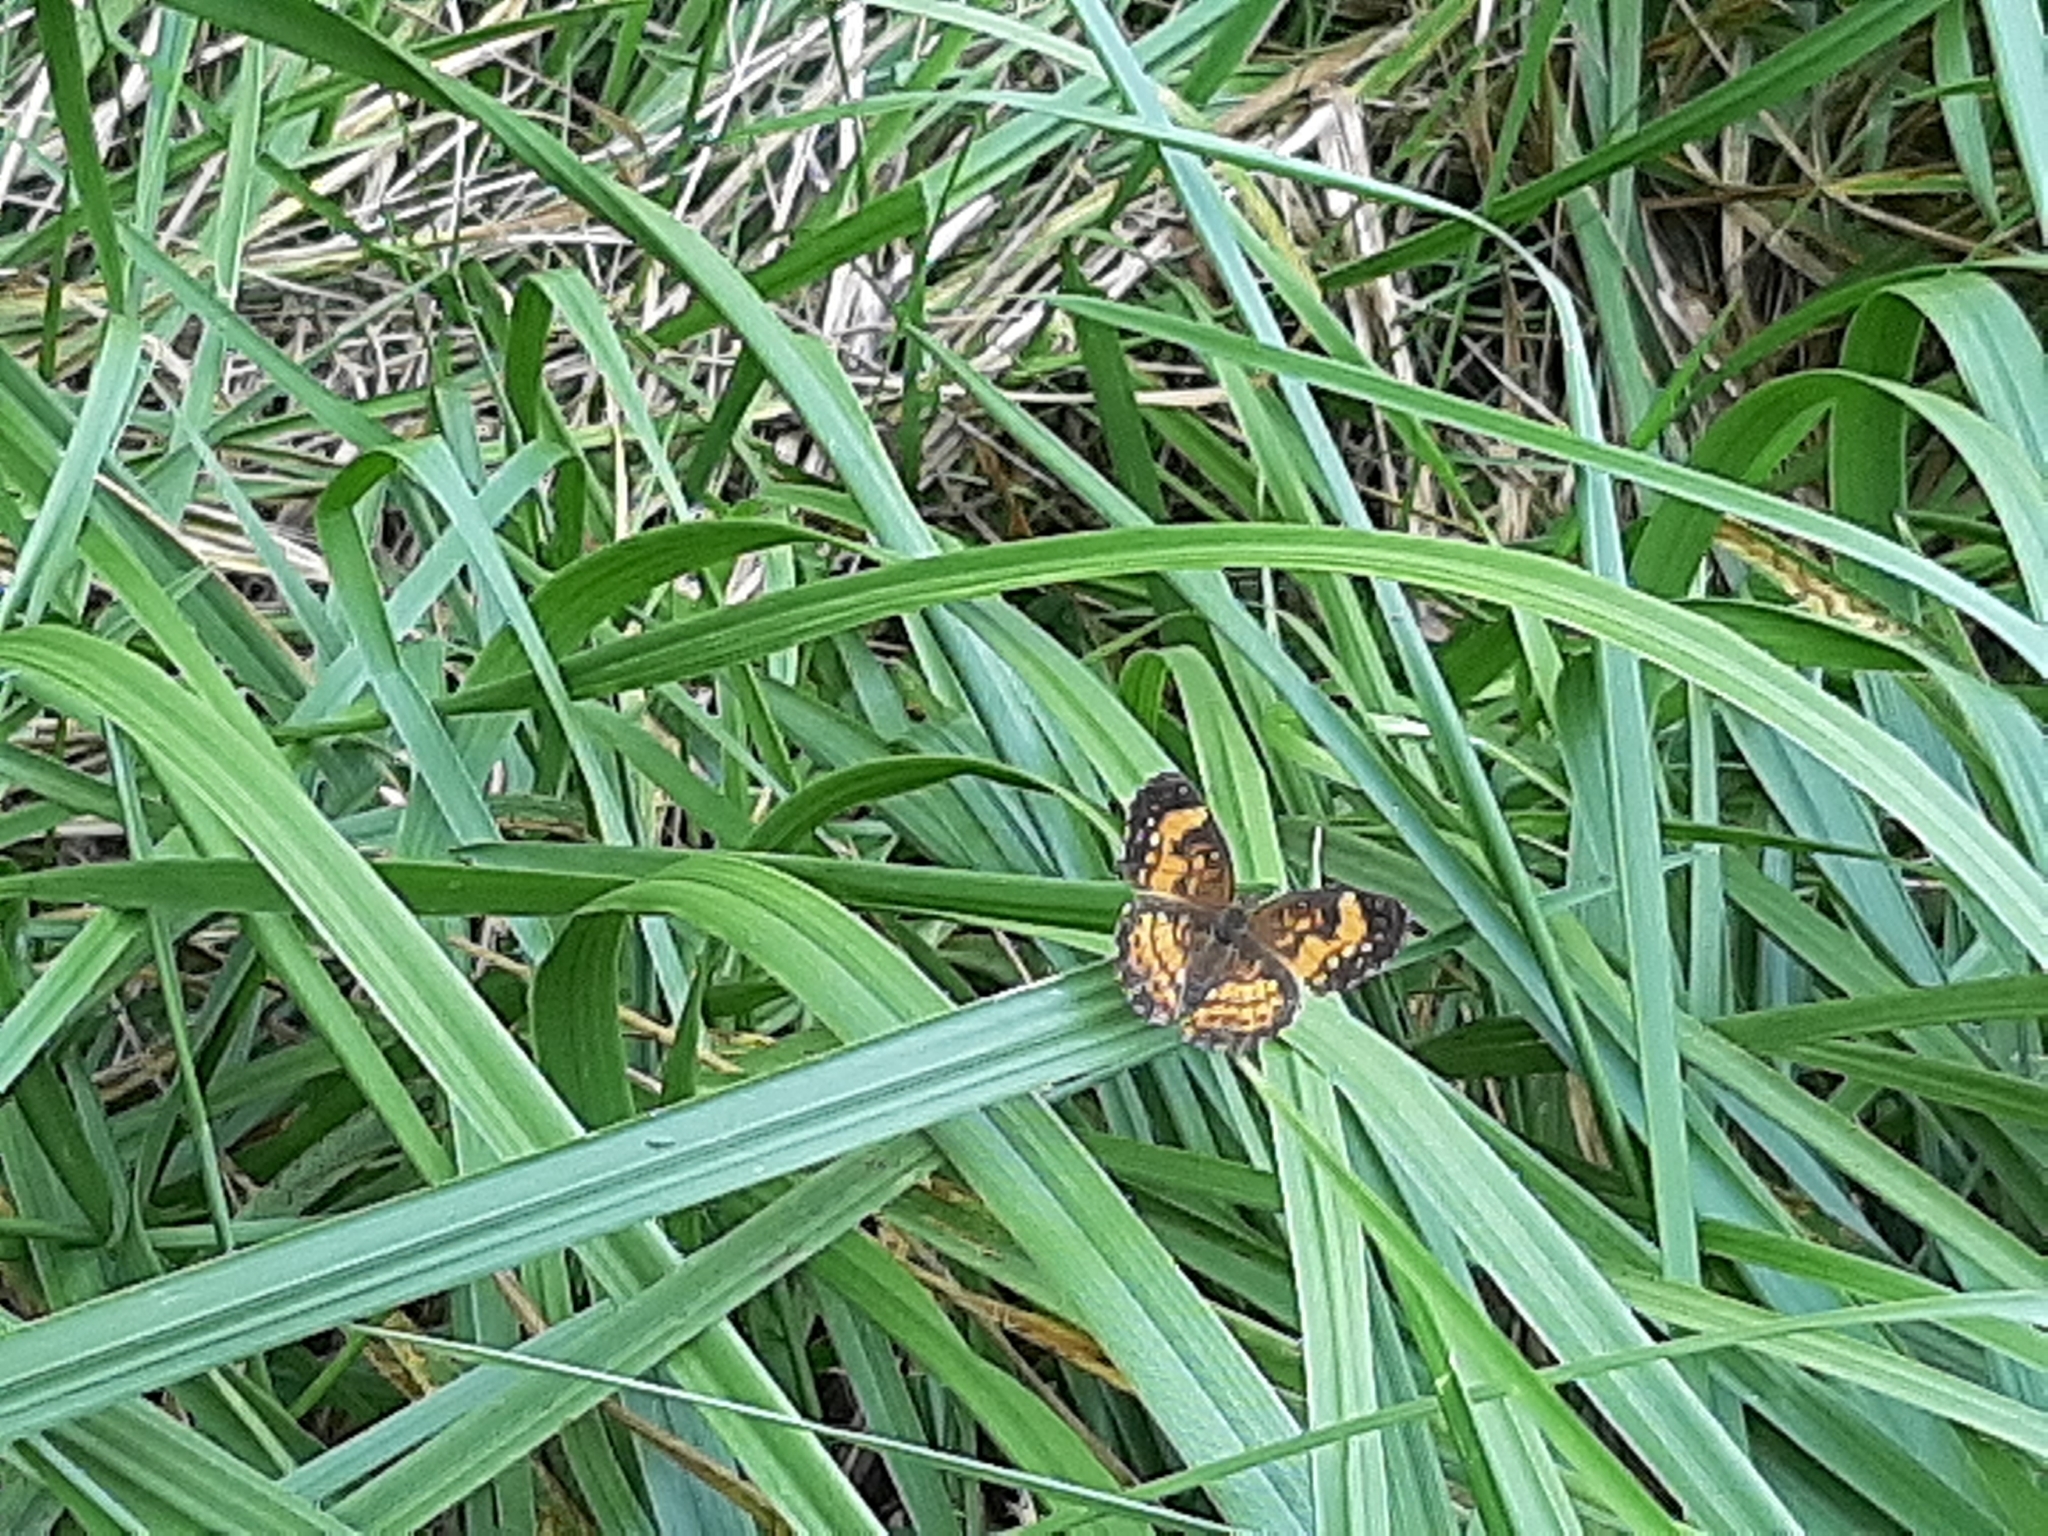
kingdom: Animalia
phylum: Arthropoda
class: Insecta
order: Lepidoptera
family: Nymphalidae
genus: Chlosyne
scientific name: Chlosyne nycteis
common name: Silvery checkerspot
